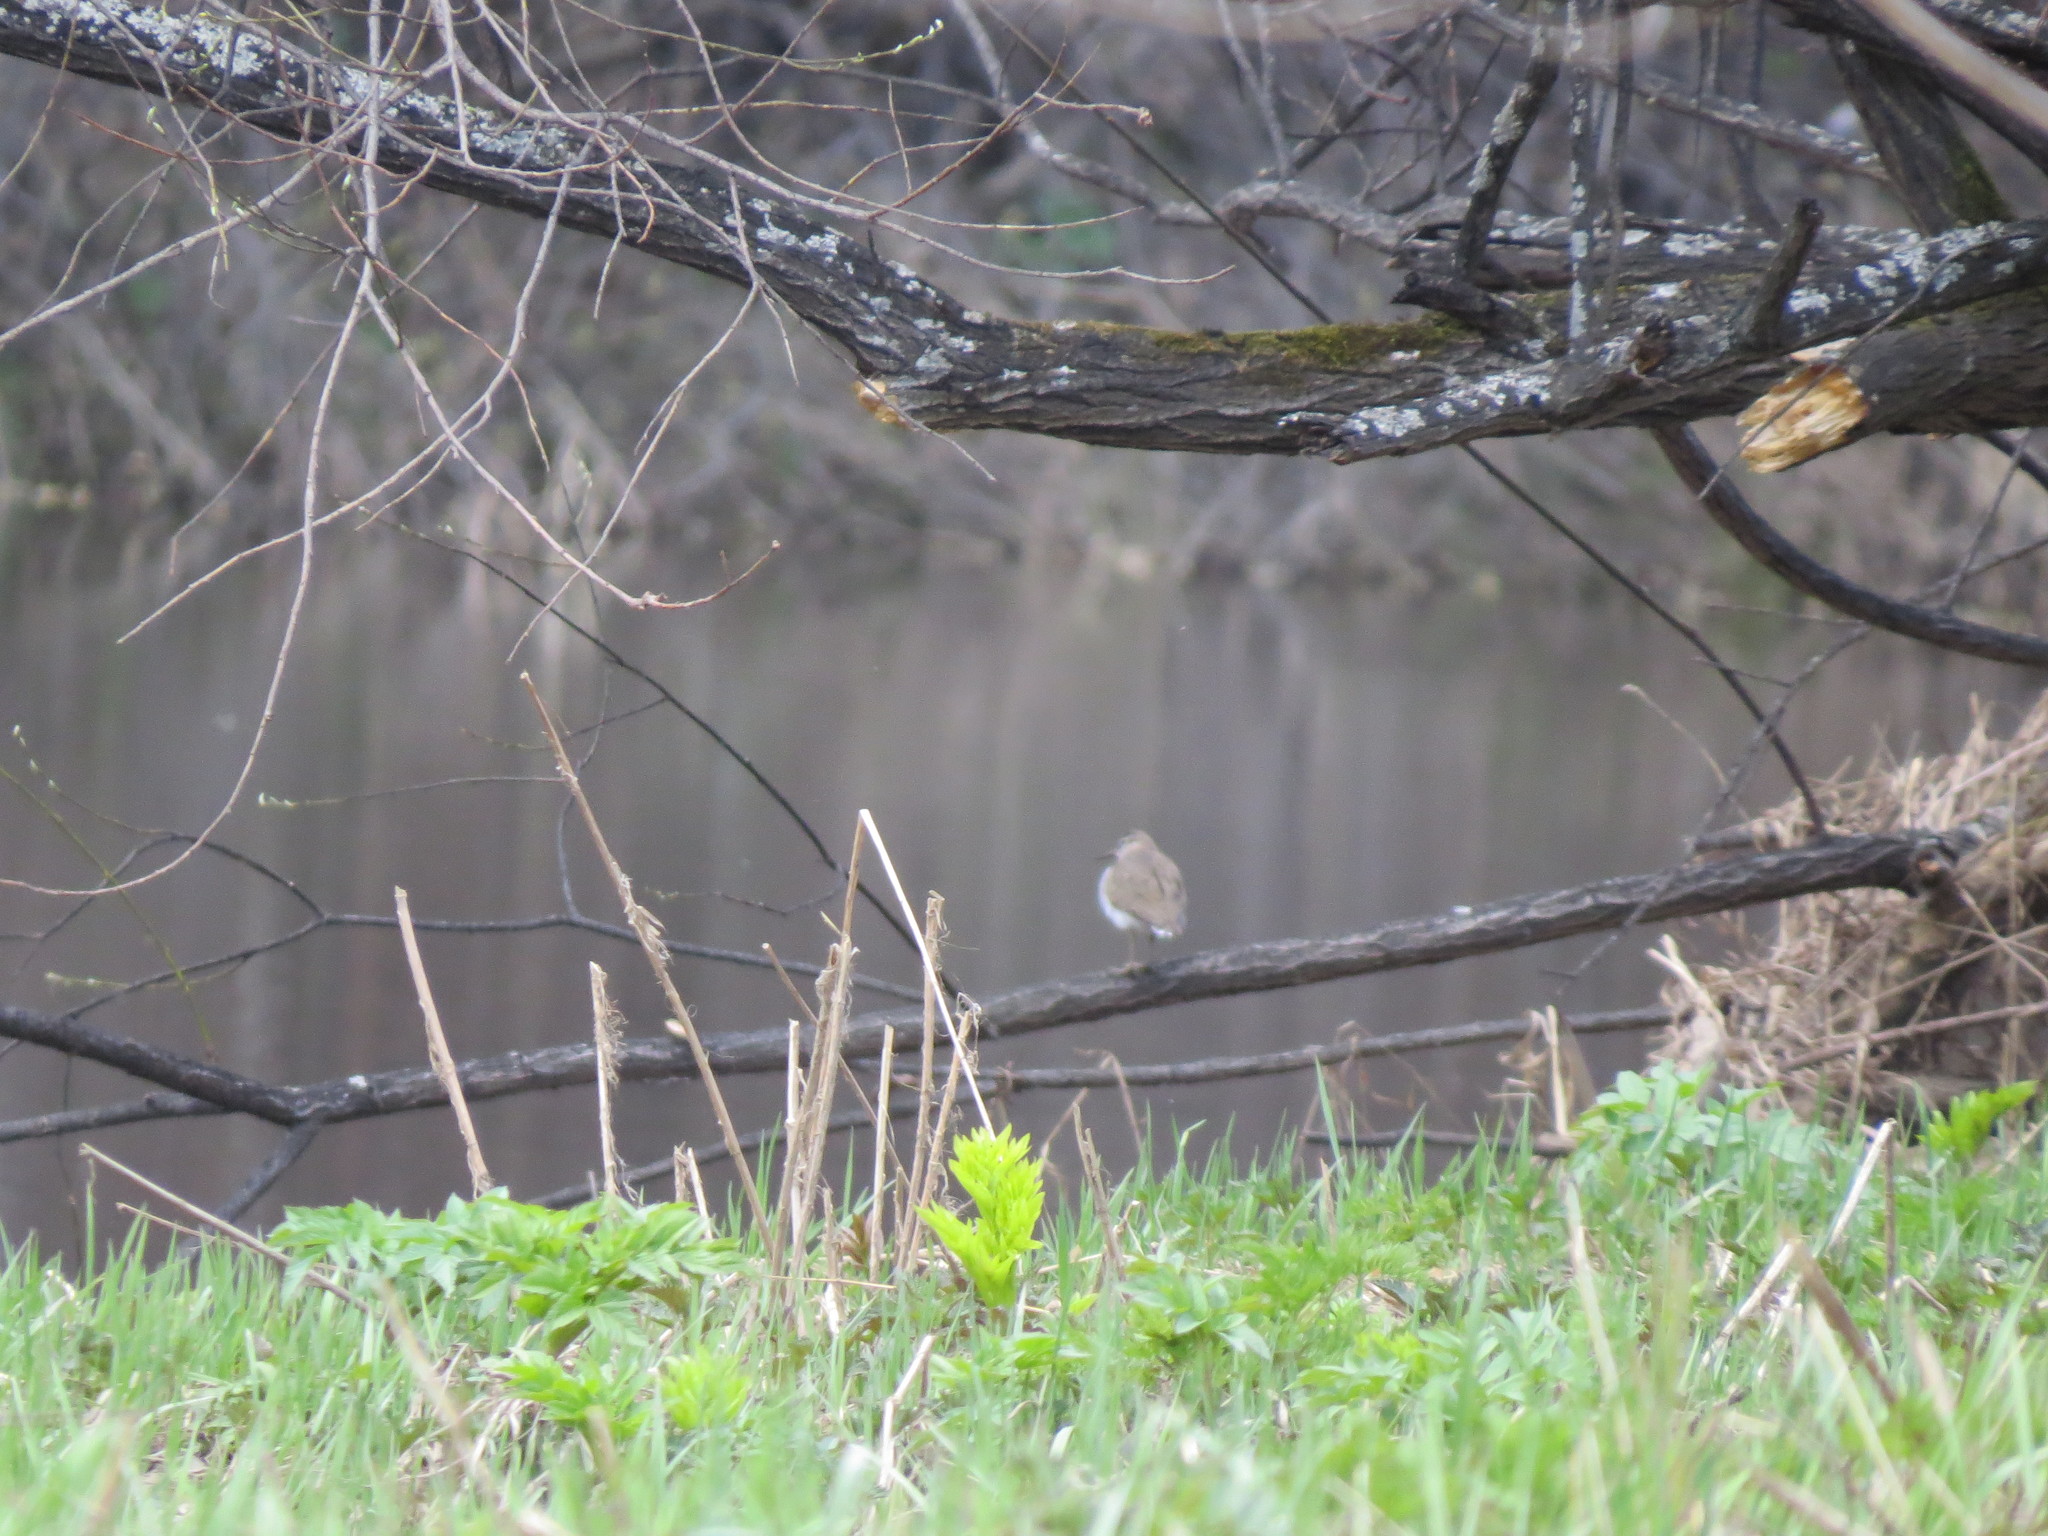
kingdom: Animalia
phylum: Chordata
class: Aves
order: Charadriiformes
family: Scolopacidae
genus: Actitis
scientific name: Actitis hypoleucos
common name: Common sandpiper
